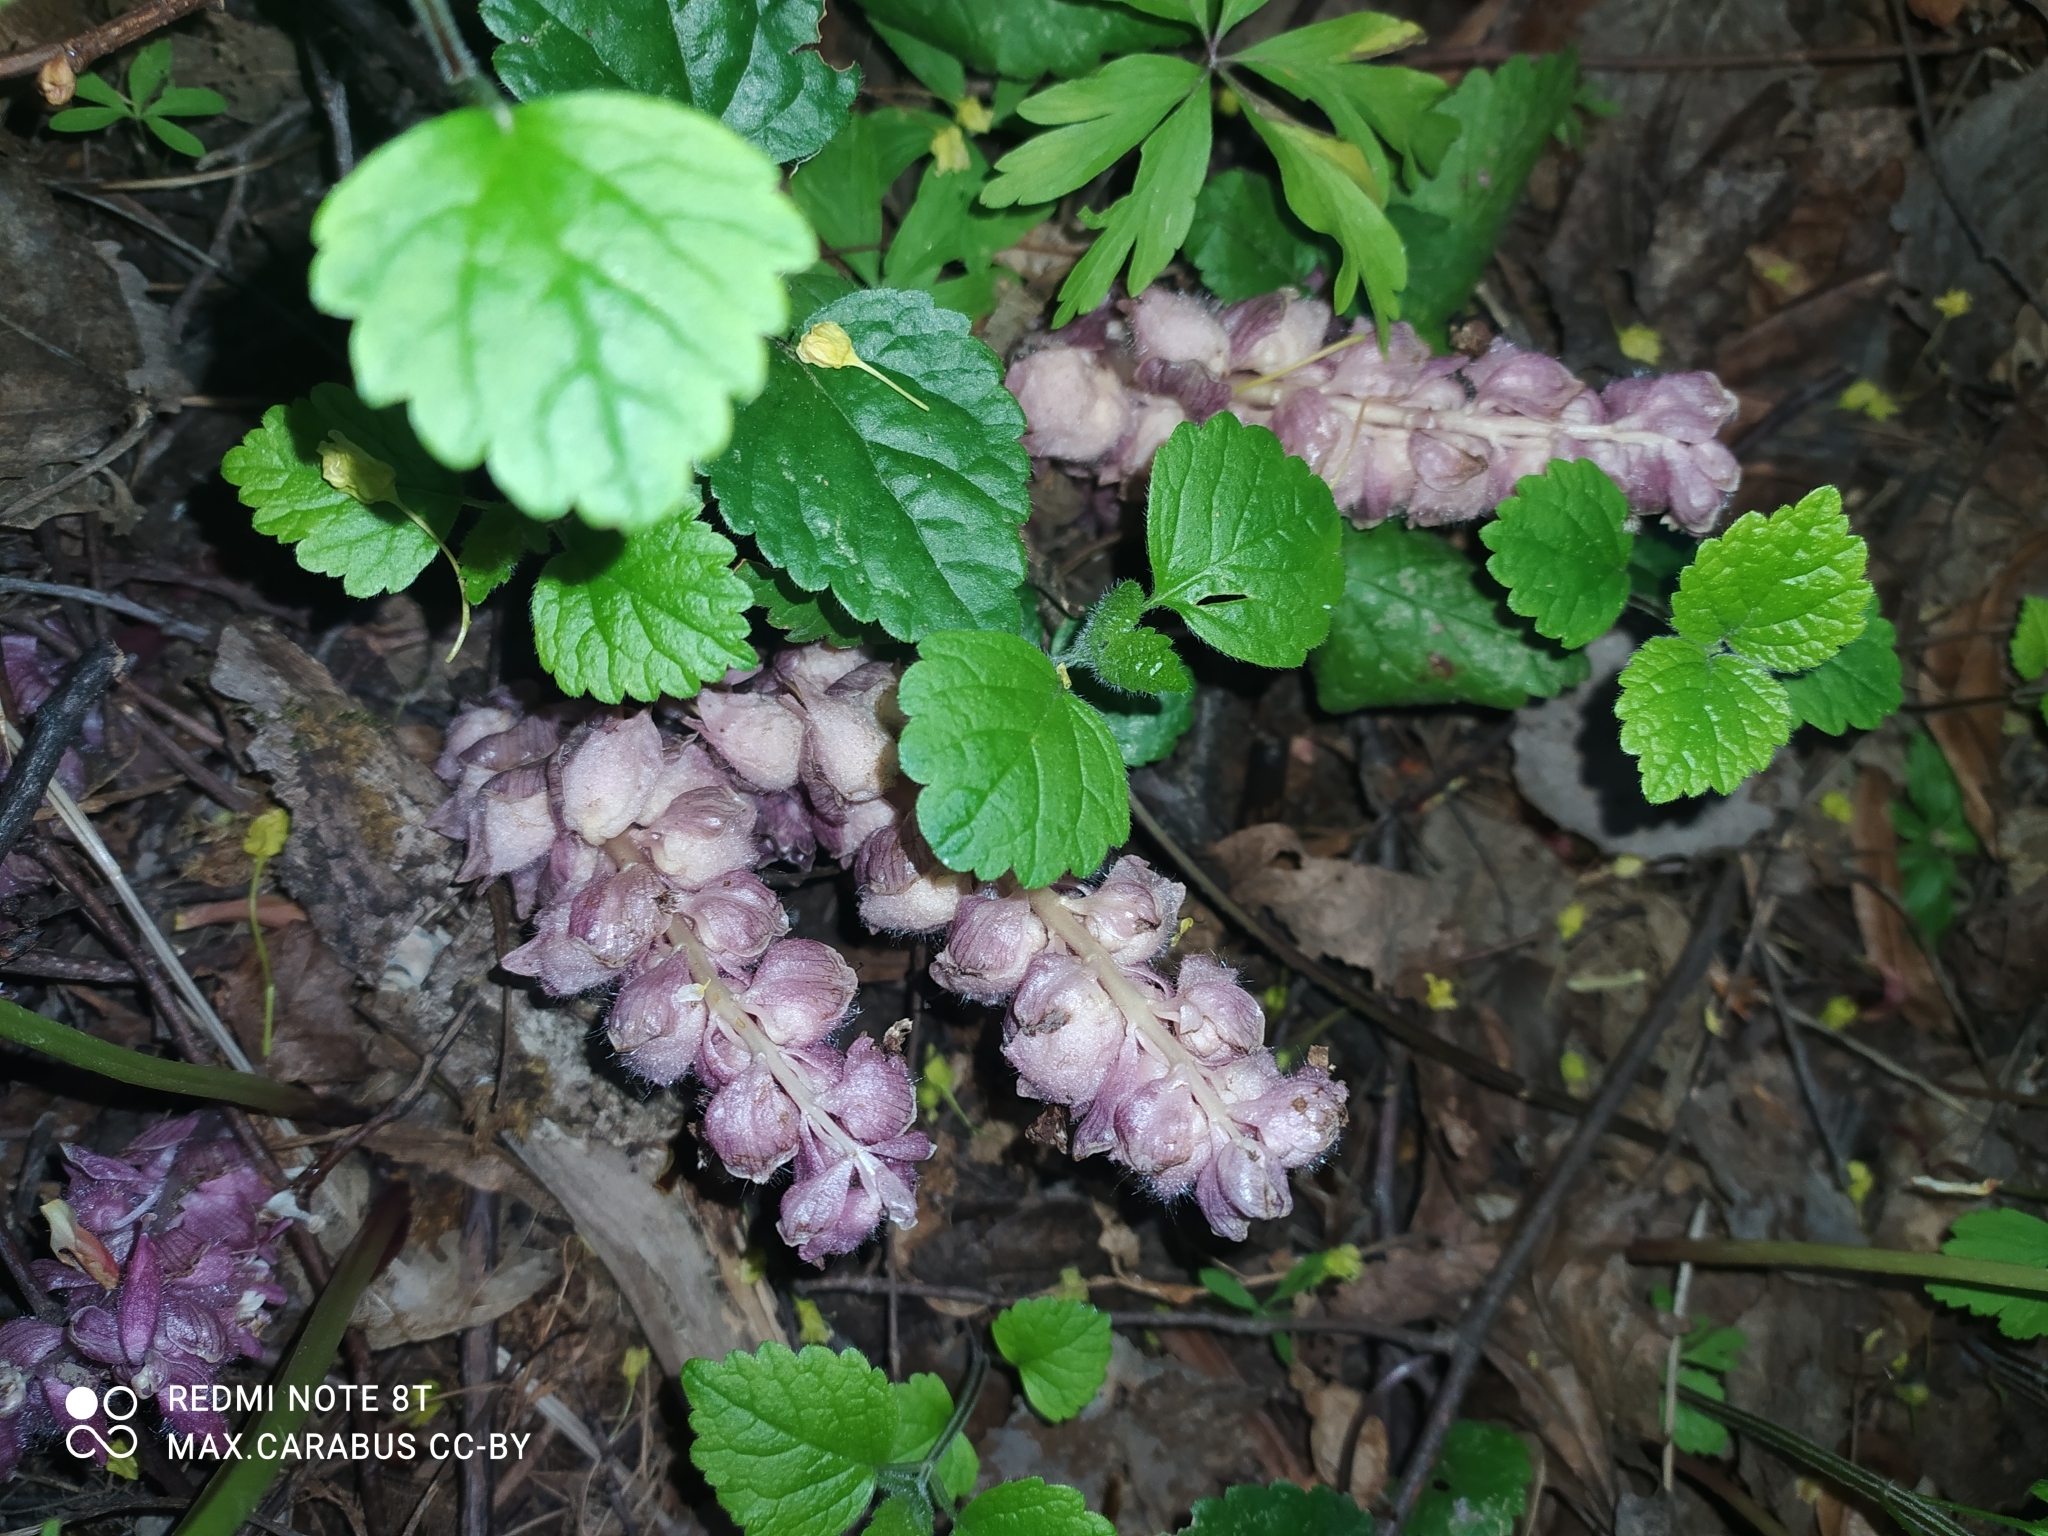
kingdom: Plantae
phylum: Tracheophyta
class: Magnoliopsida
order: Lamiales
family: Orobanchaceae
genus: Lathraea
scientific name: Lathraea squamaria
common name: Toothwort
